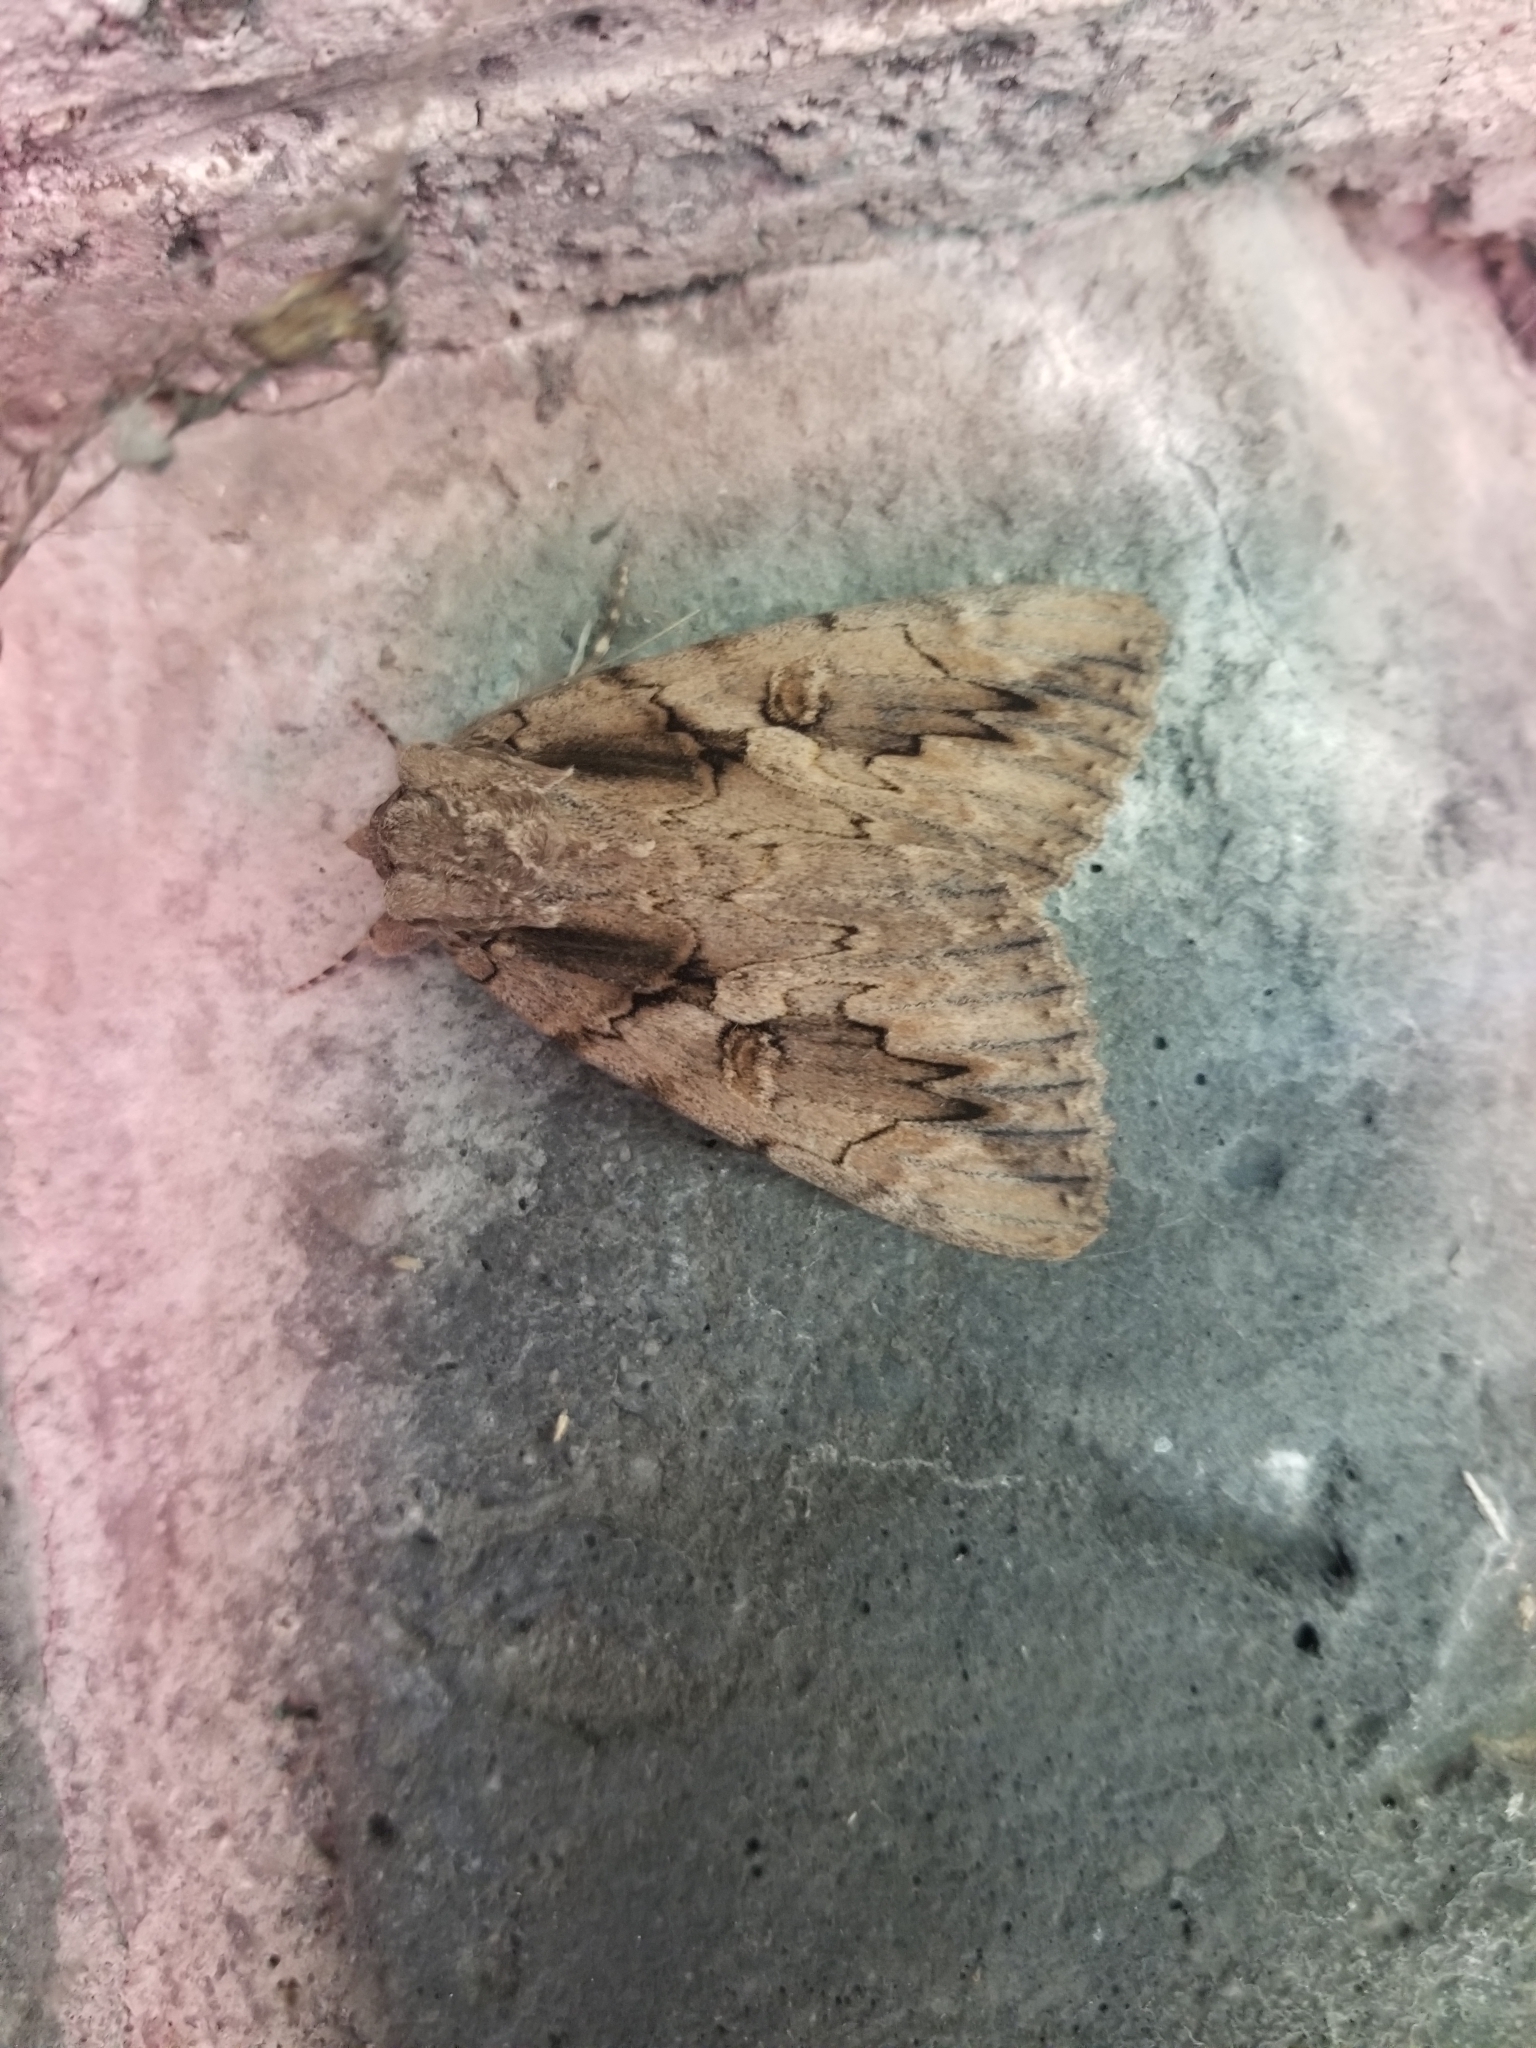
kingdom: Animalia
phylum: Arthropoda
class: Insecta
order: Lepidoptera
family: Erebidae
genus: Catocala
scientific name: Catocala amatrix
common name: Sweetheart underwing
